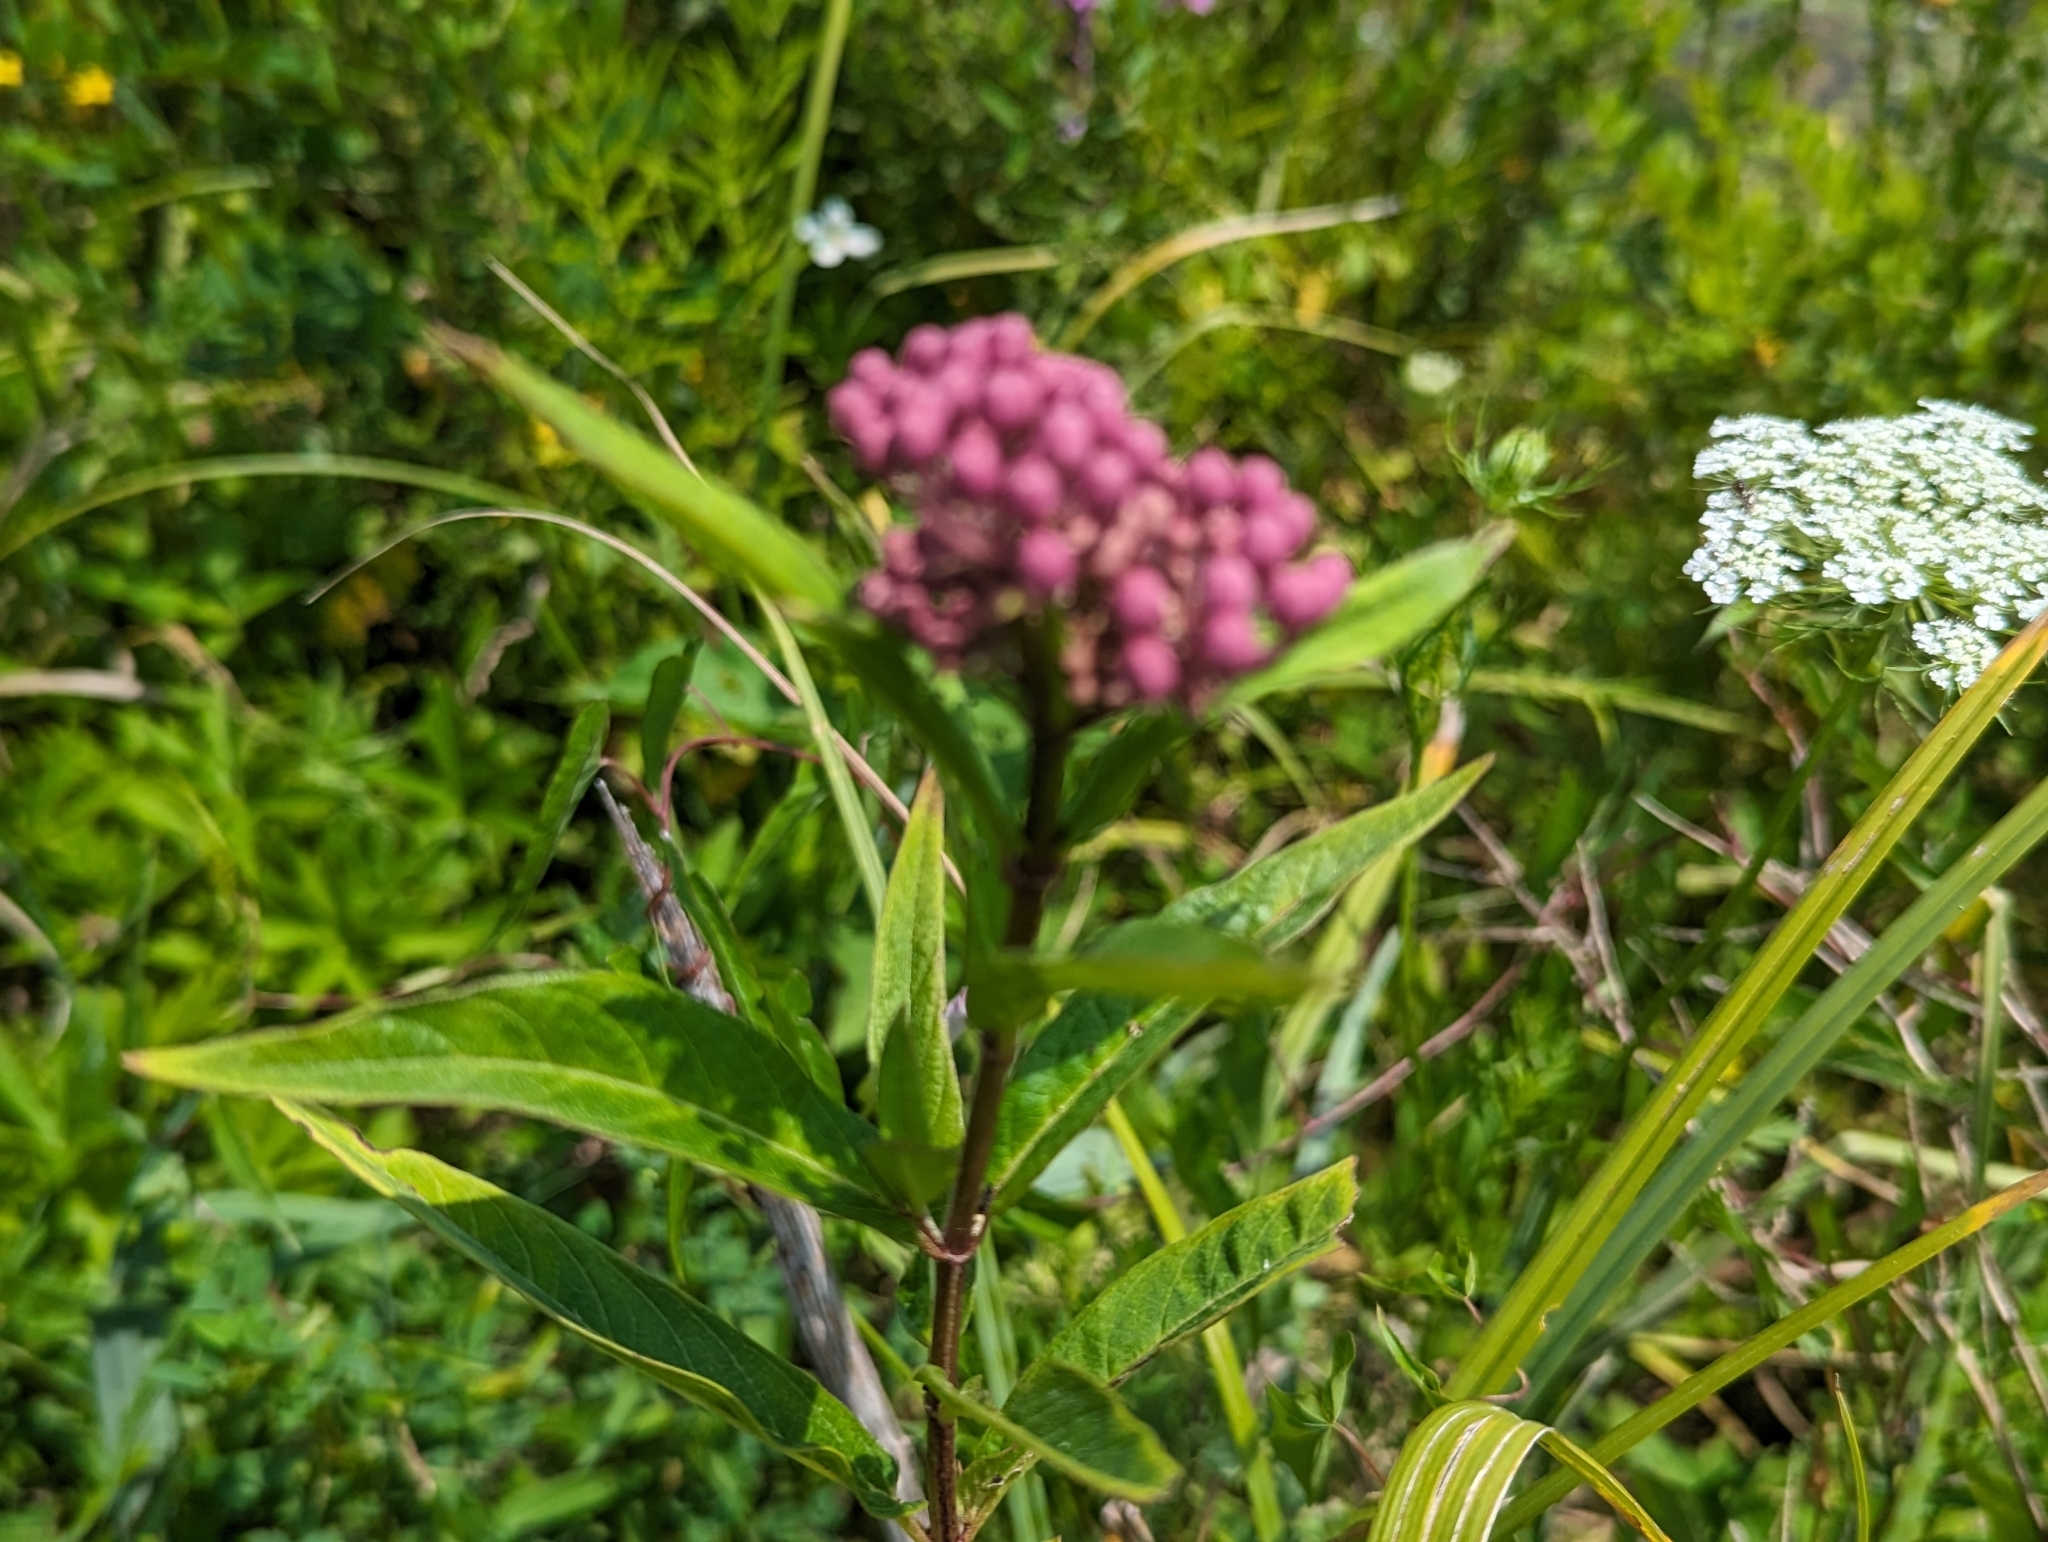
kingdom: Plantae
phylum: Tracheophyta
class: Magnoliopsida
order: Gentianales
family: Apocynaceae
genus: Asclepias
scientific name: Asclepias incarnata
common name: Swamp milkweed
